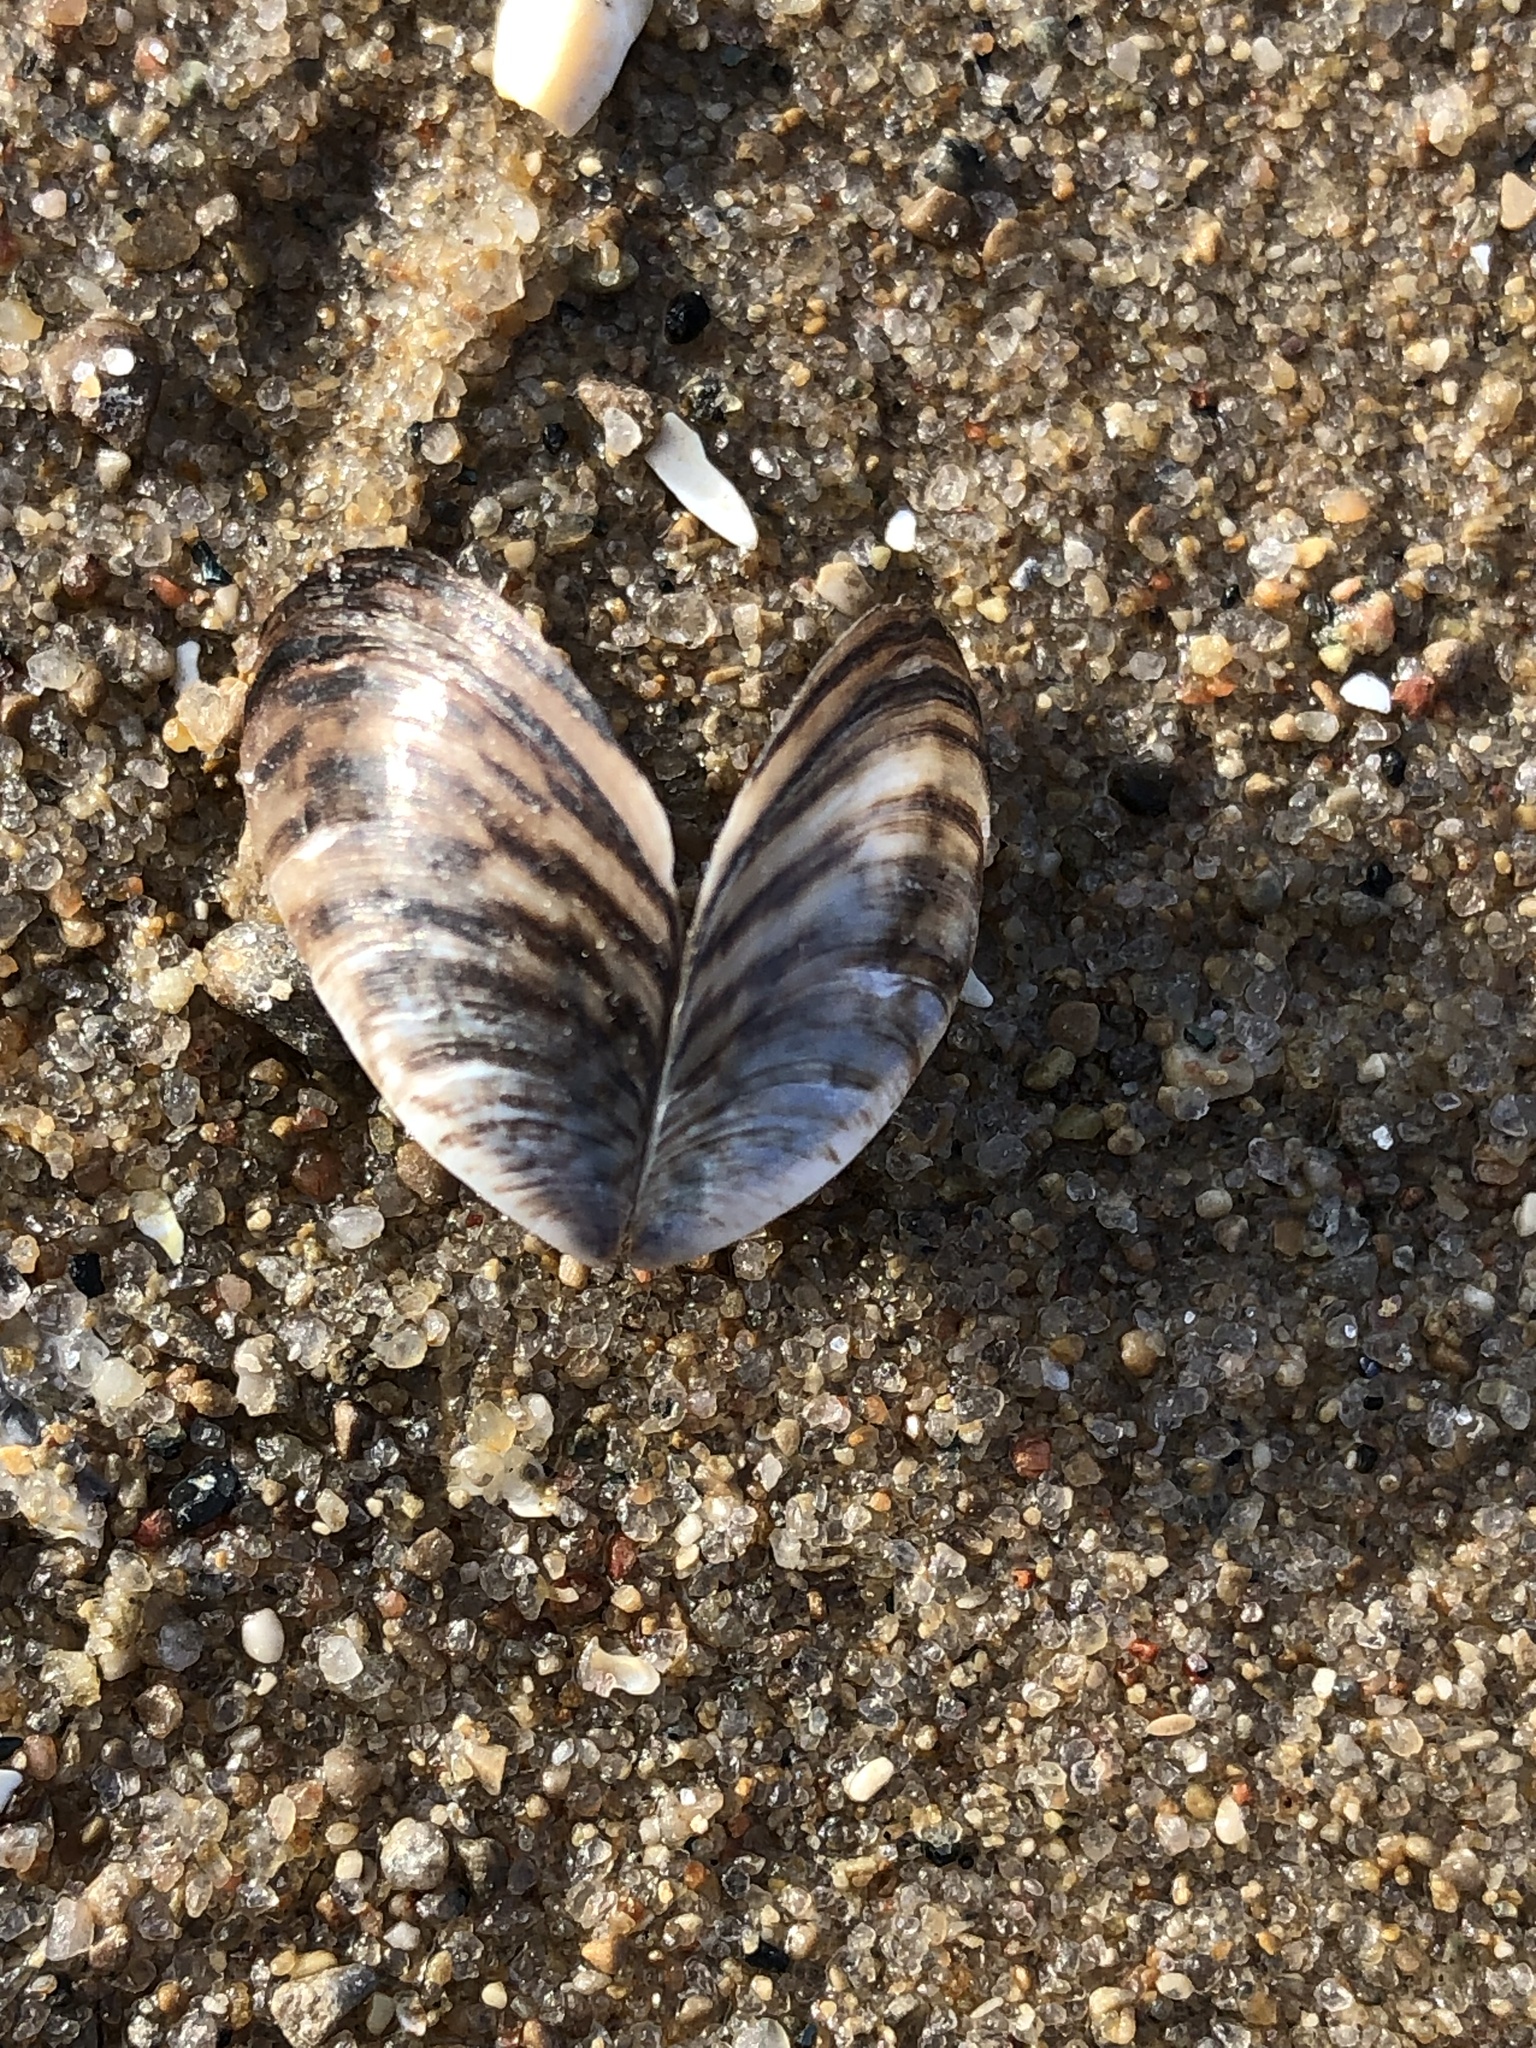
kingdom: Animalia
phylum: Mollusca
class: Bivalvia
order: Myida
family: Dreissenidae
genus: Dreissena
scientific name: Dreissena polymorpha
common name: Zebra mussel
